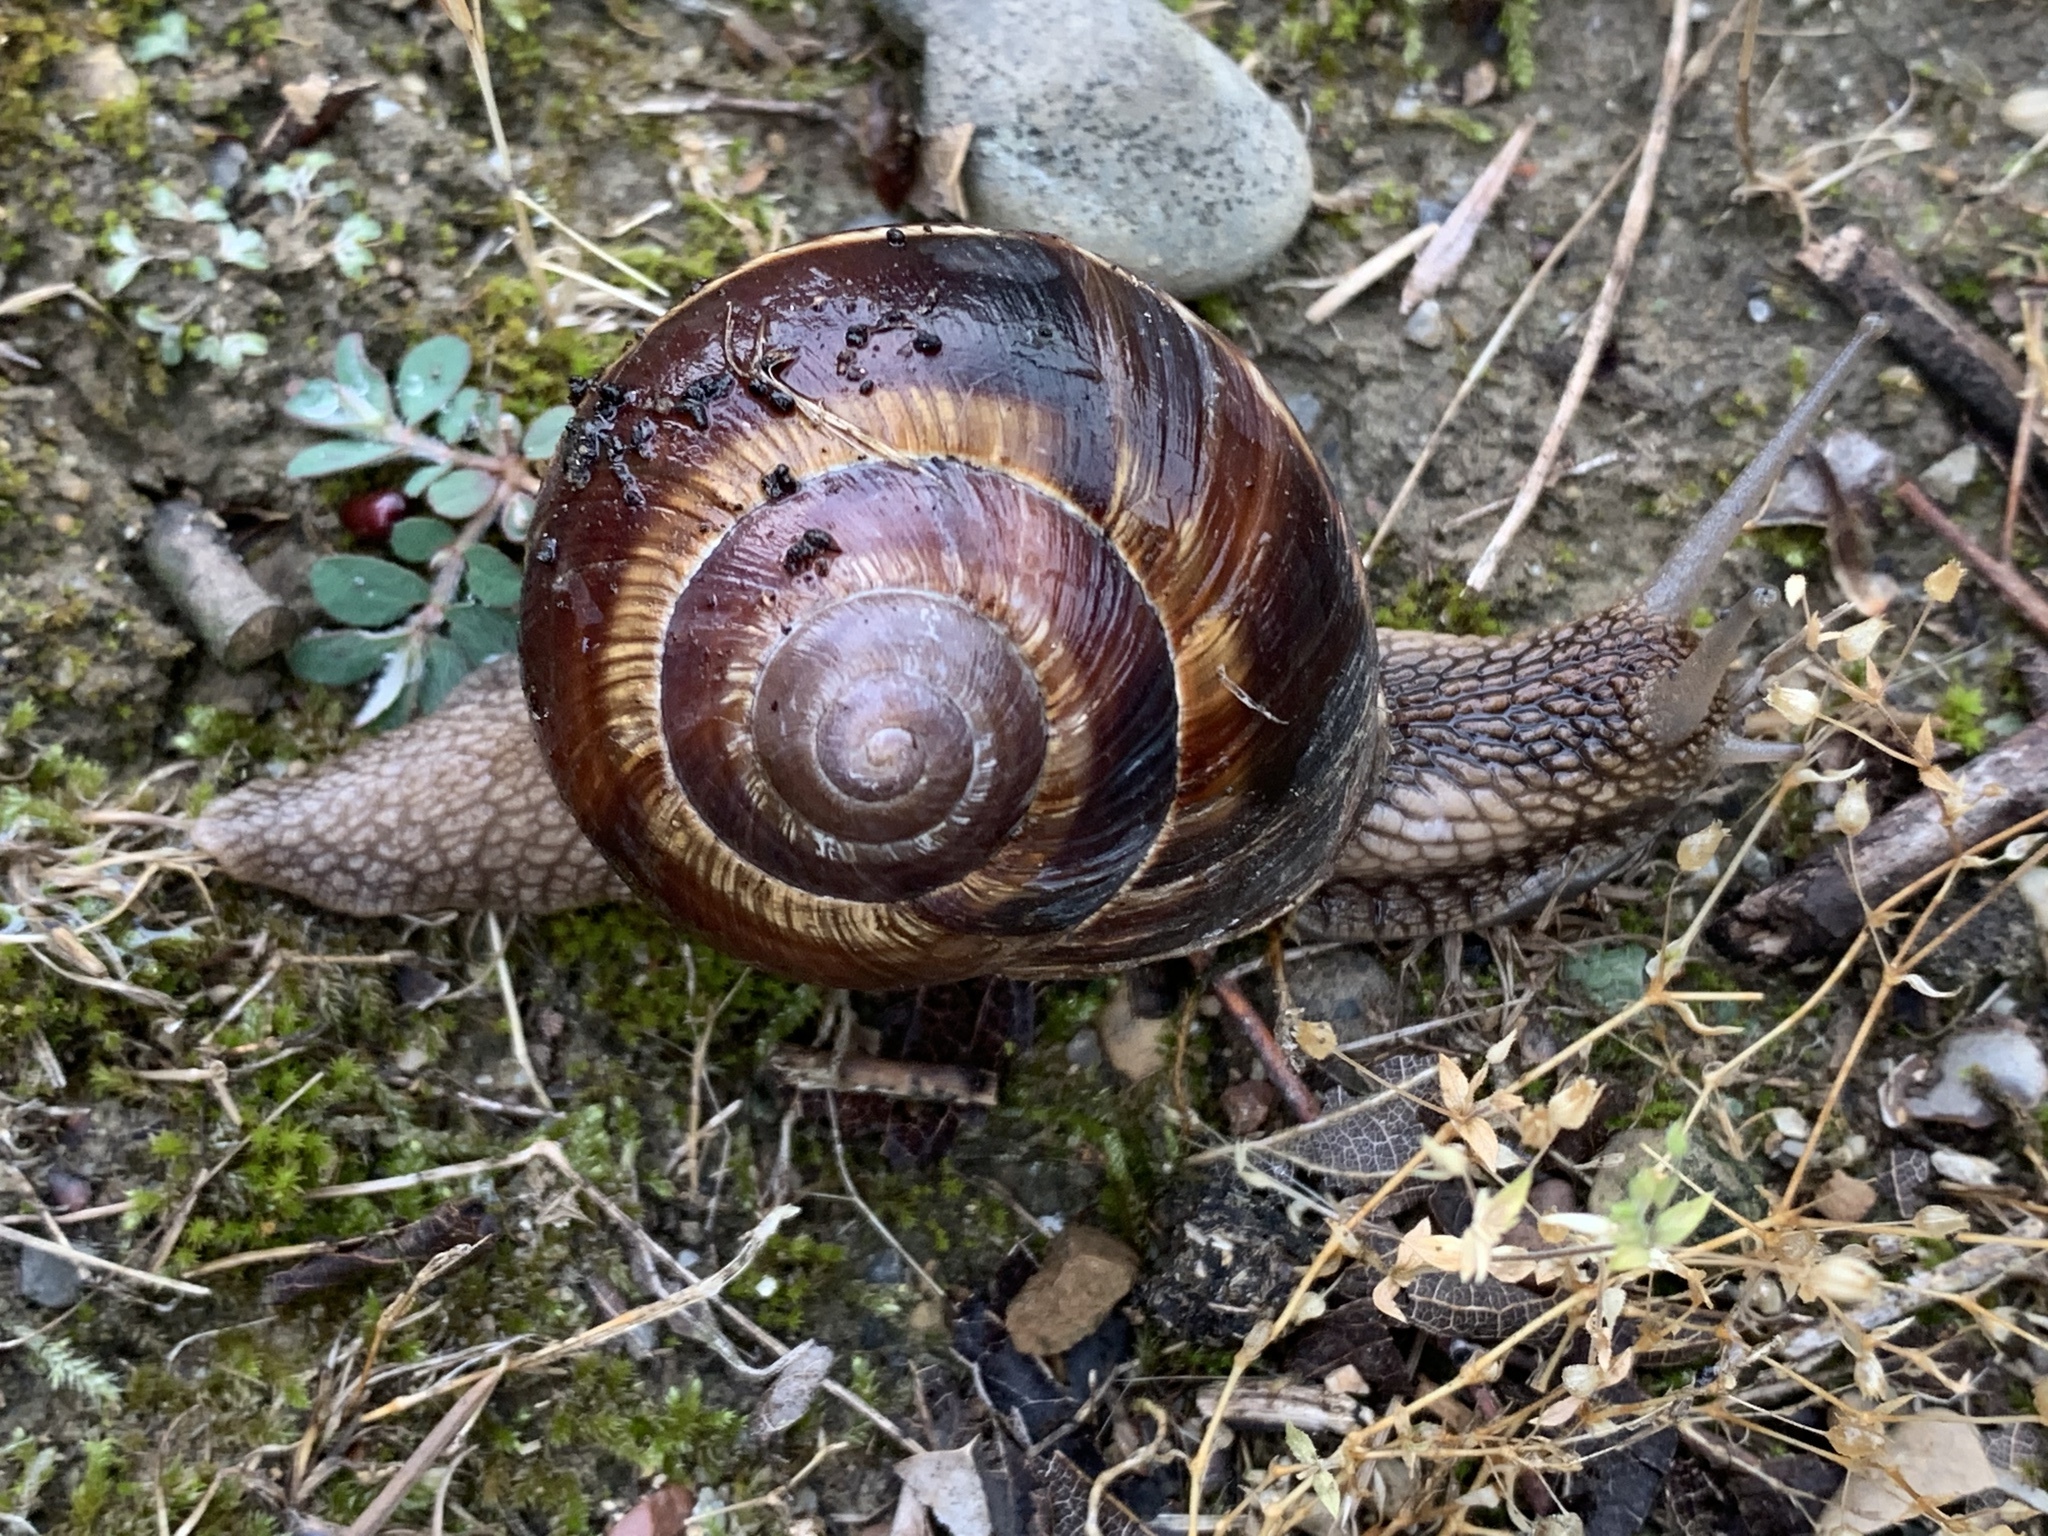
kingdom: Animalia
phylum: Mollusca
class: Gastropoda
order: Stylommatophora
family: Helicidae
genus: Helix
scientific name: Helix lucorum
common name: Turkish snail
